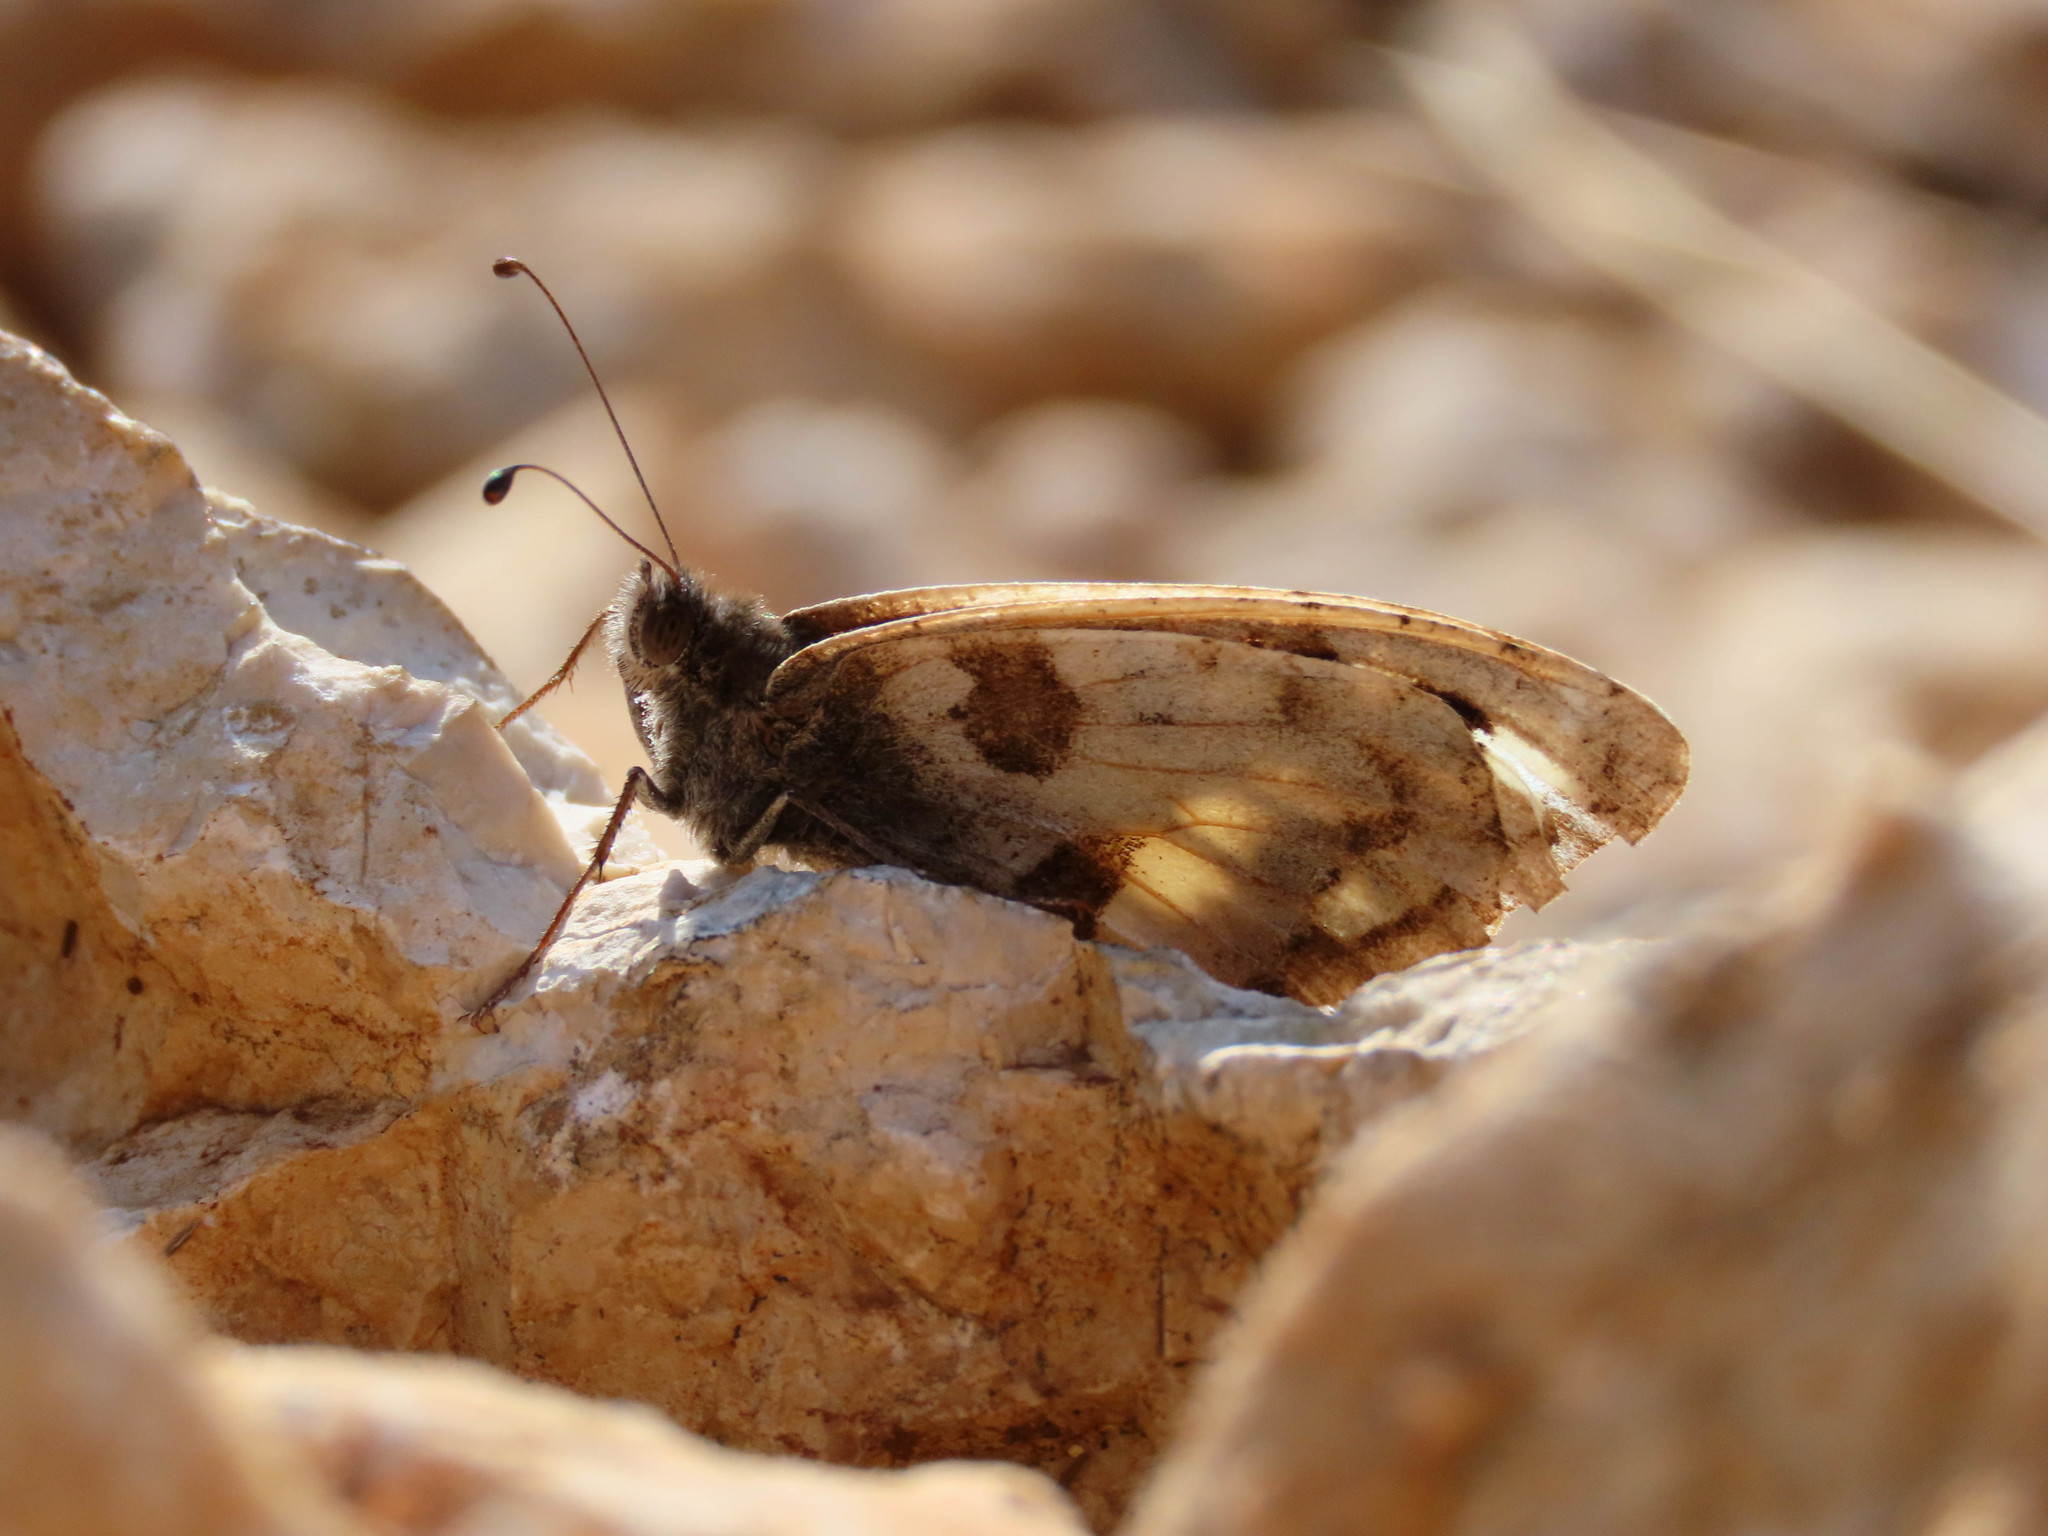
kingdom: Animalia
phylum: Arthropoda
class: Insecta
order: Lepidoptera
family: Nymphalidae
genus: Satyrus
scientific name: Satyrus briseis
